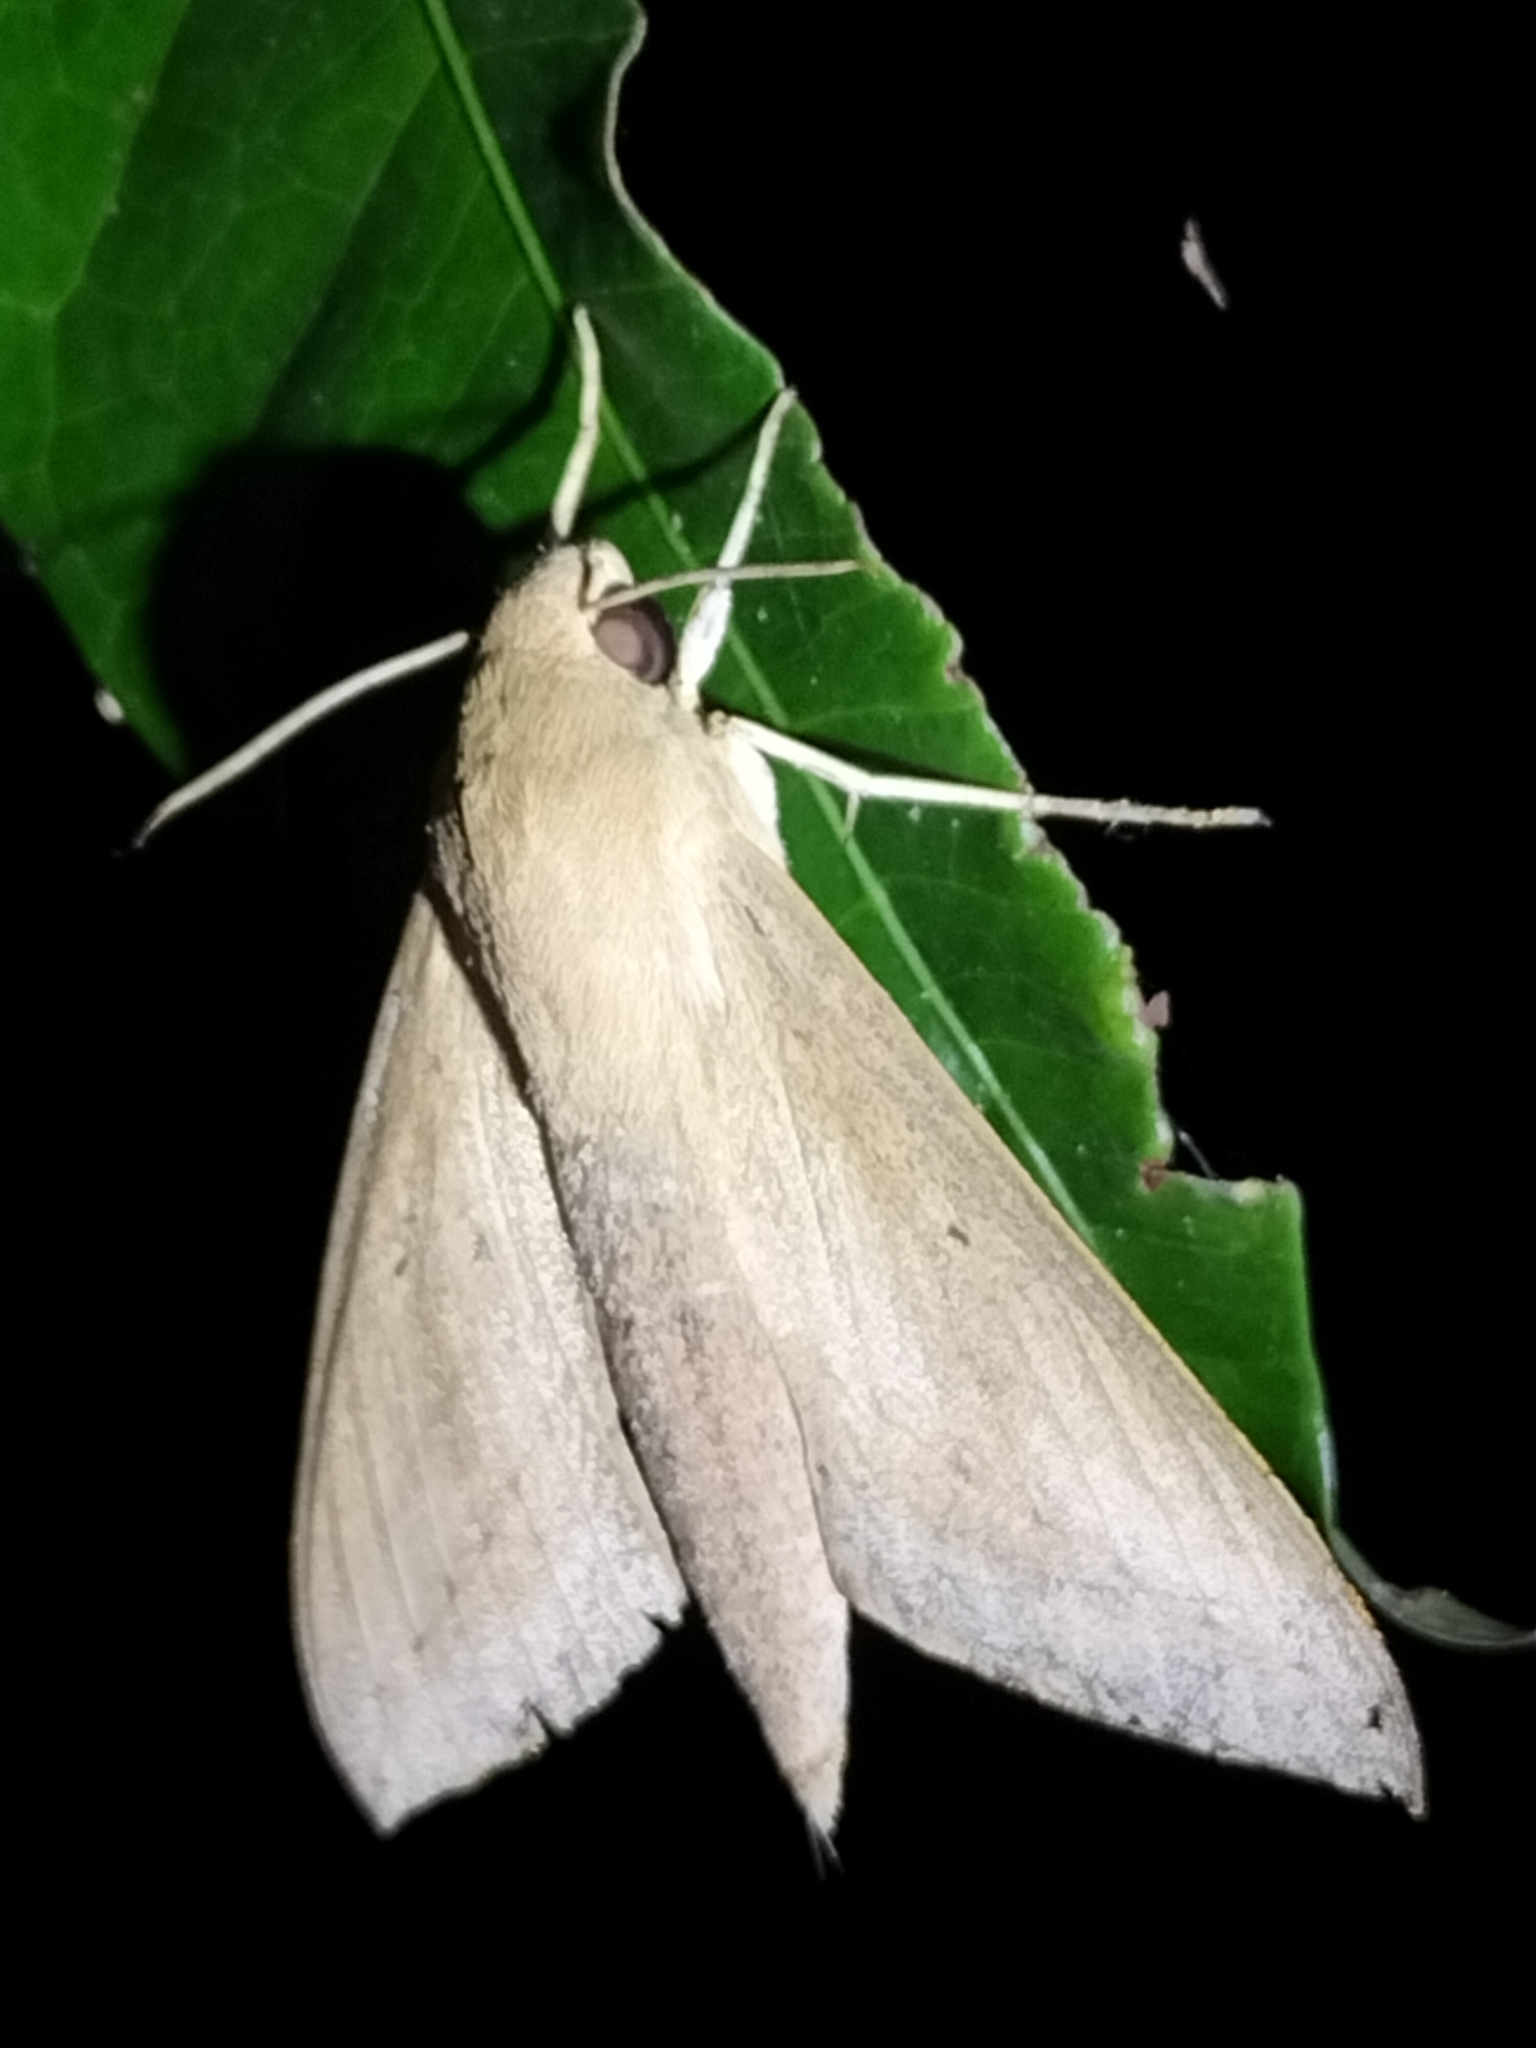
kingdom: Animalia
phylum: Arthropoda
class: Insecta
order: Lepidoptera
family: Sphingidae
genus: Theretra
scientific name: Theretra latreillii
